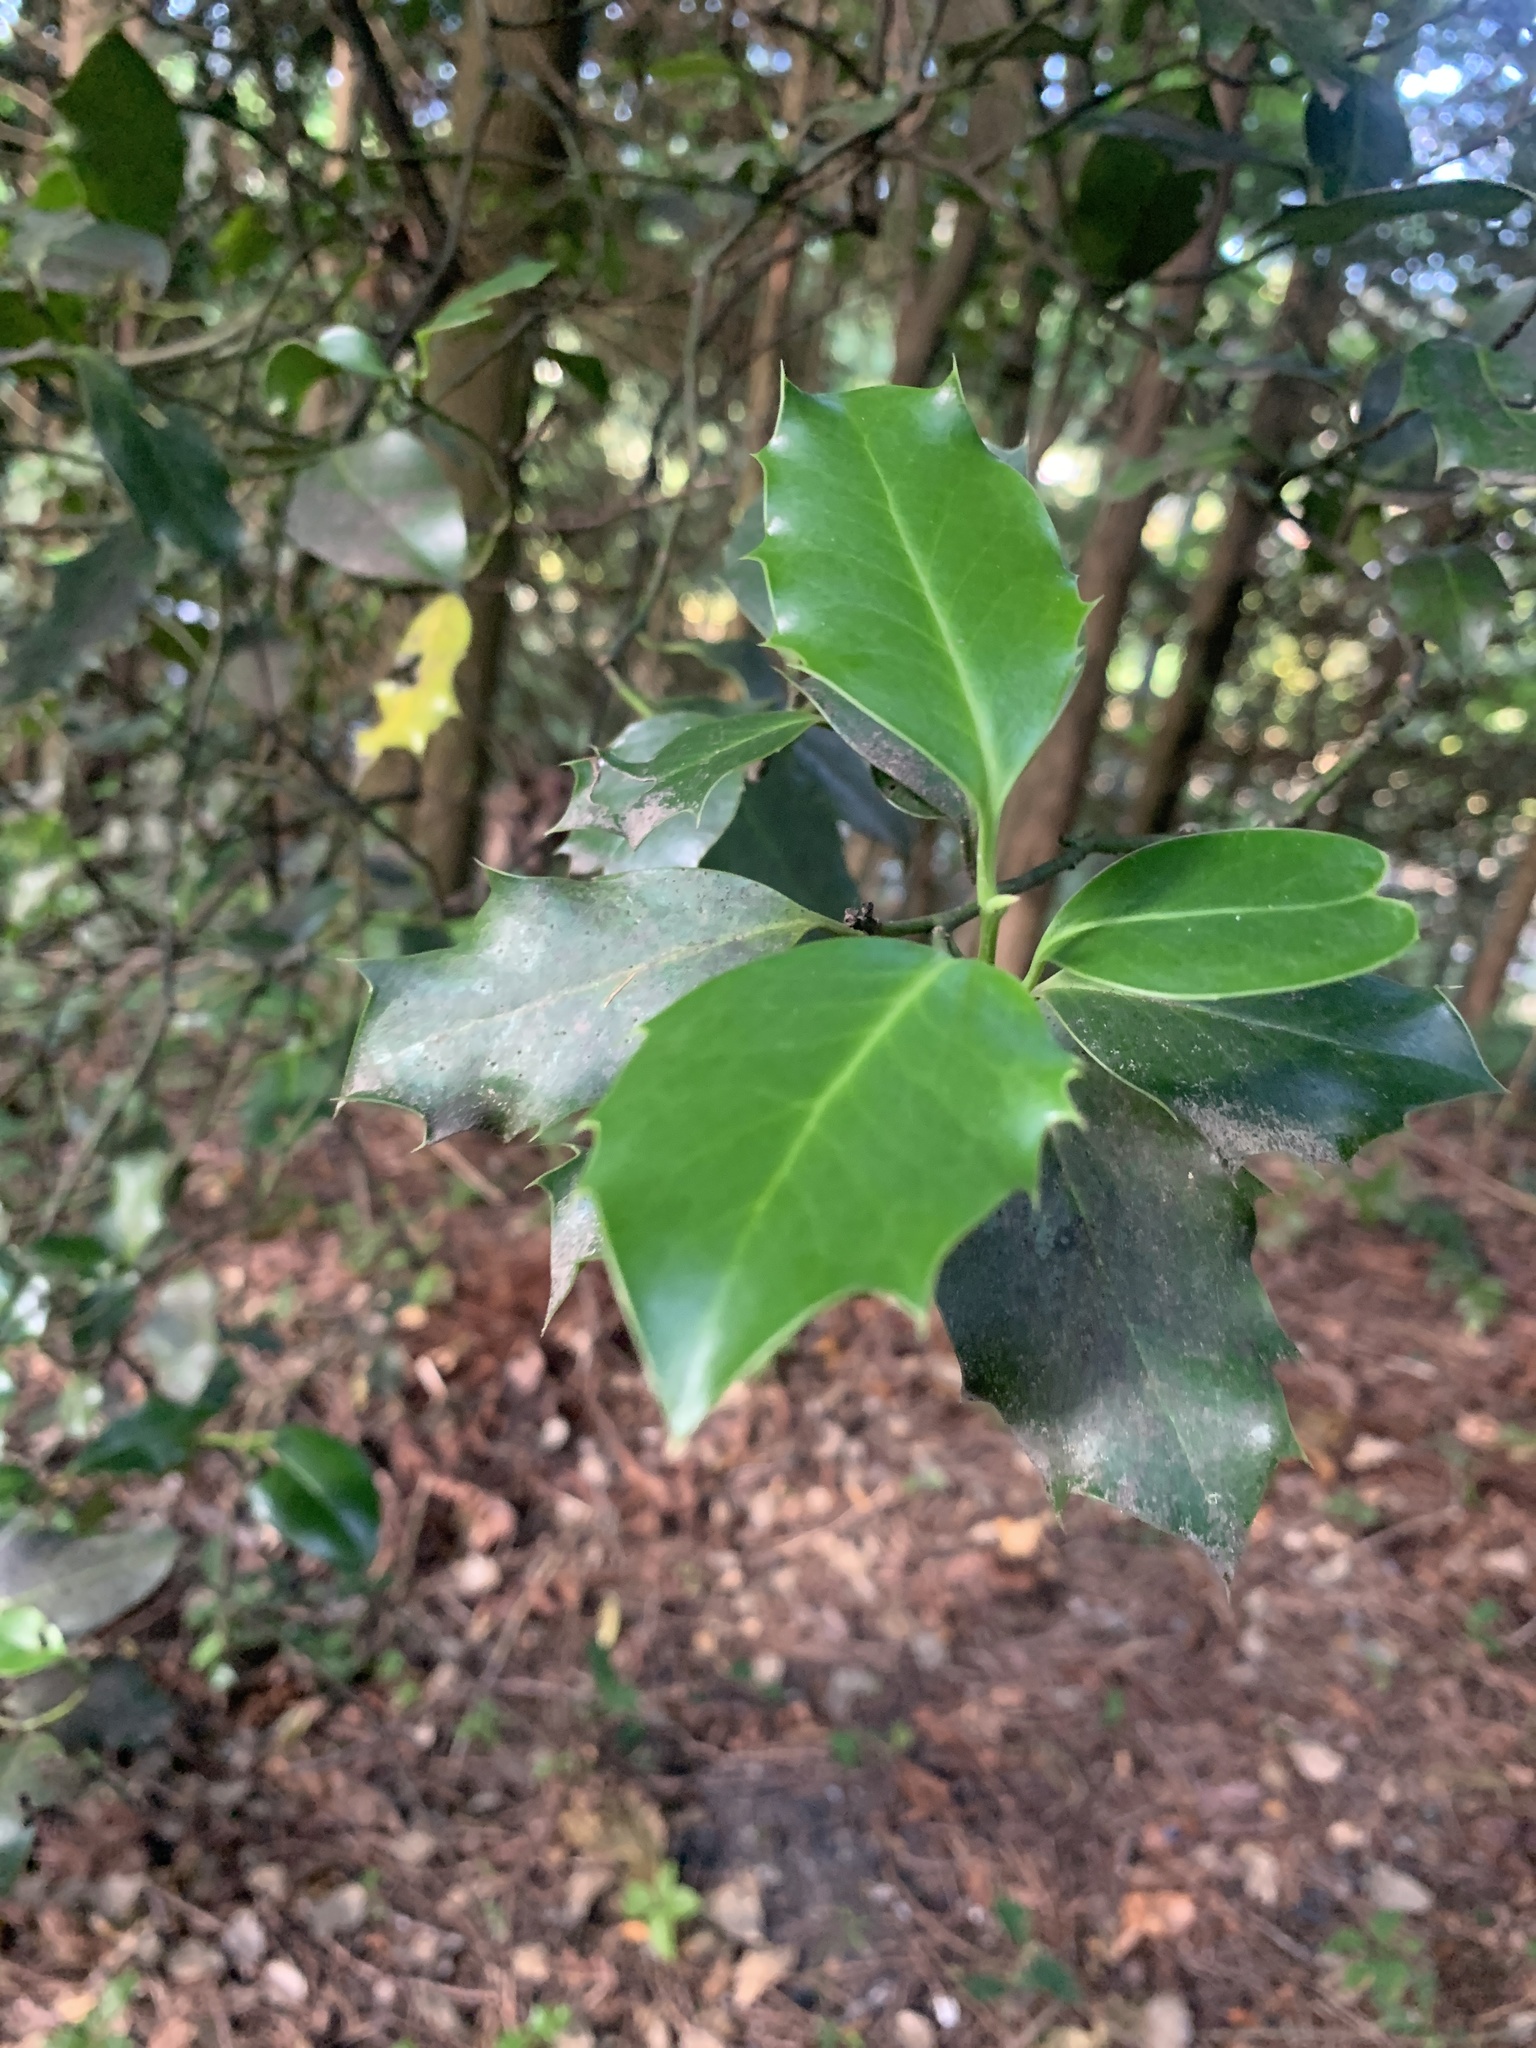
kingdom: Plantae
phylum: Tracheophyta
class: Magnoliopsida
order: Aquifoliales
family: Aquifoliaceae
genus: Ilex
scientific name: Ilex aquifolium
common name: English holly
